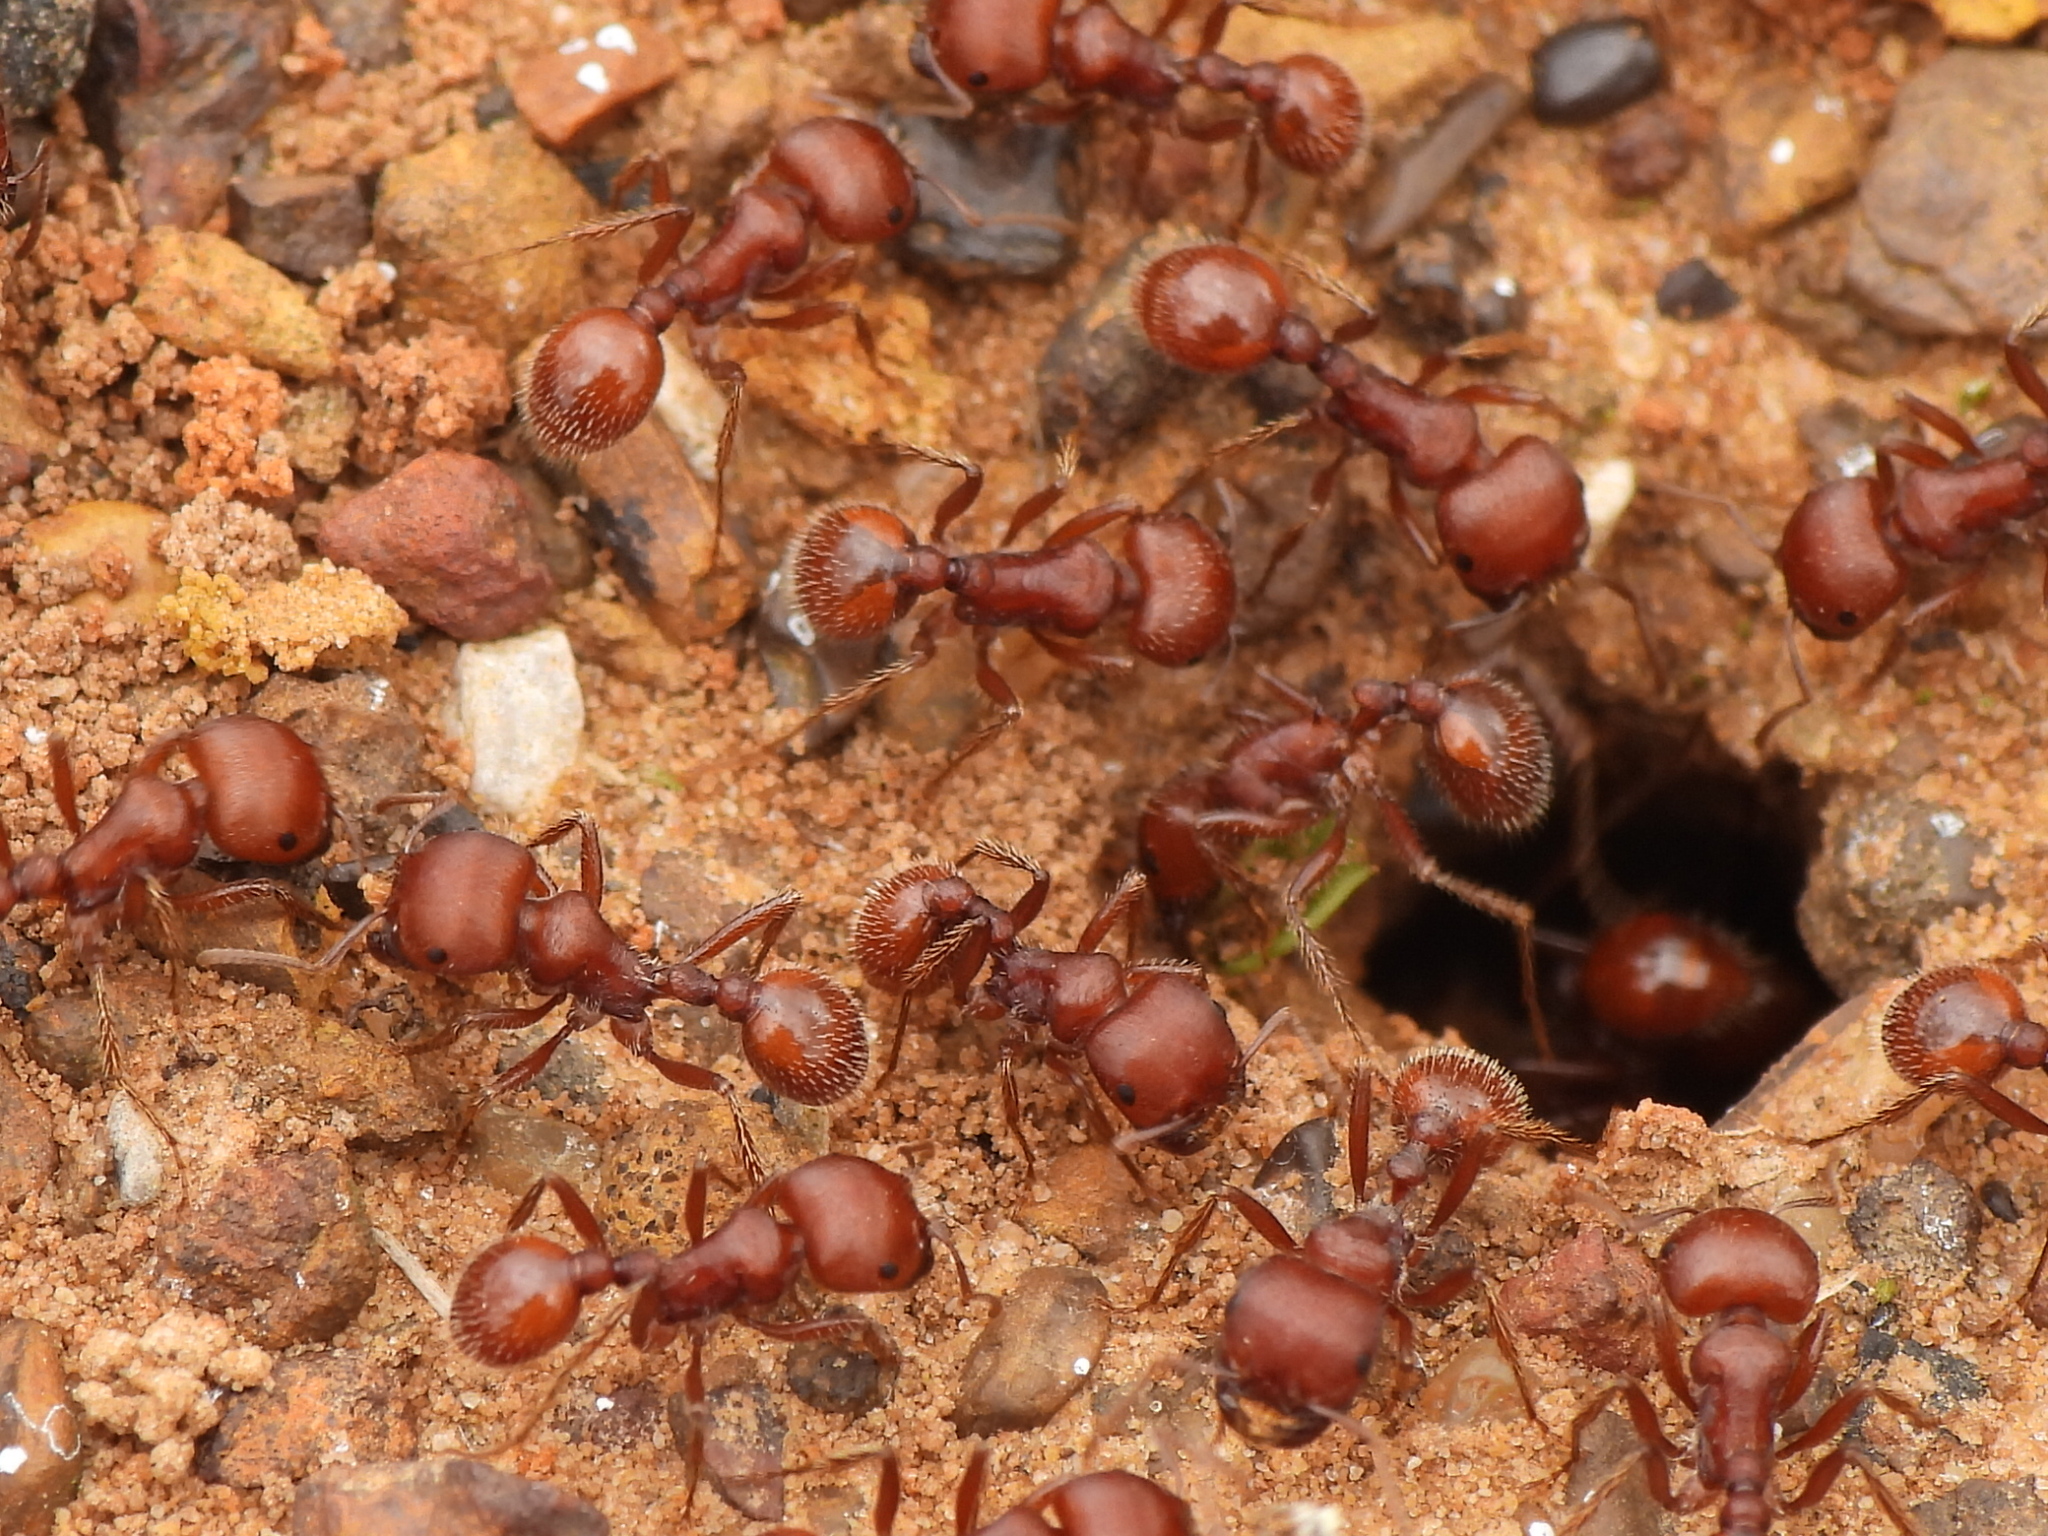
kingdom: Animalia
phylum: Arthropoda
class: Insecta
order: Hymenoptera
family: Formicidae
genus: Pogonomyrmex
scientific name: Pogonomyrmex barbatus
